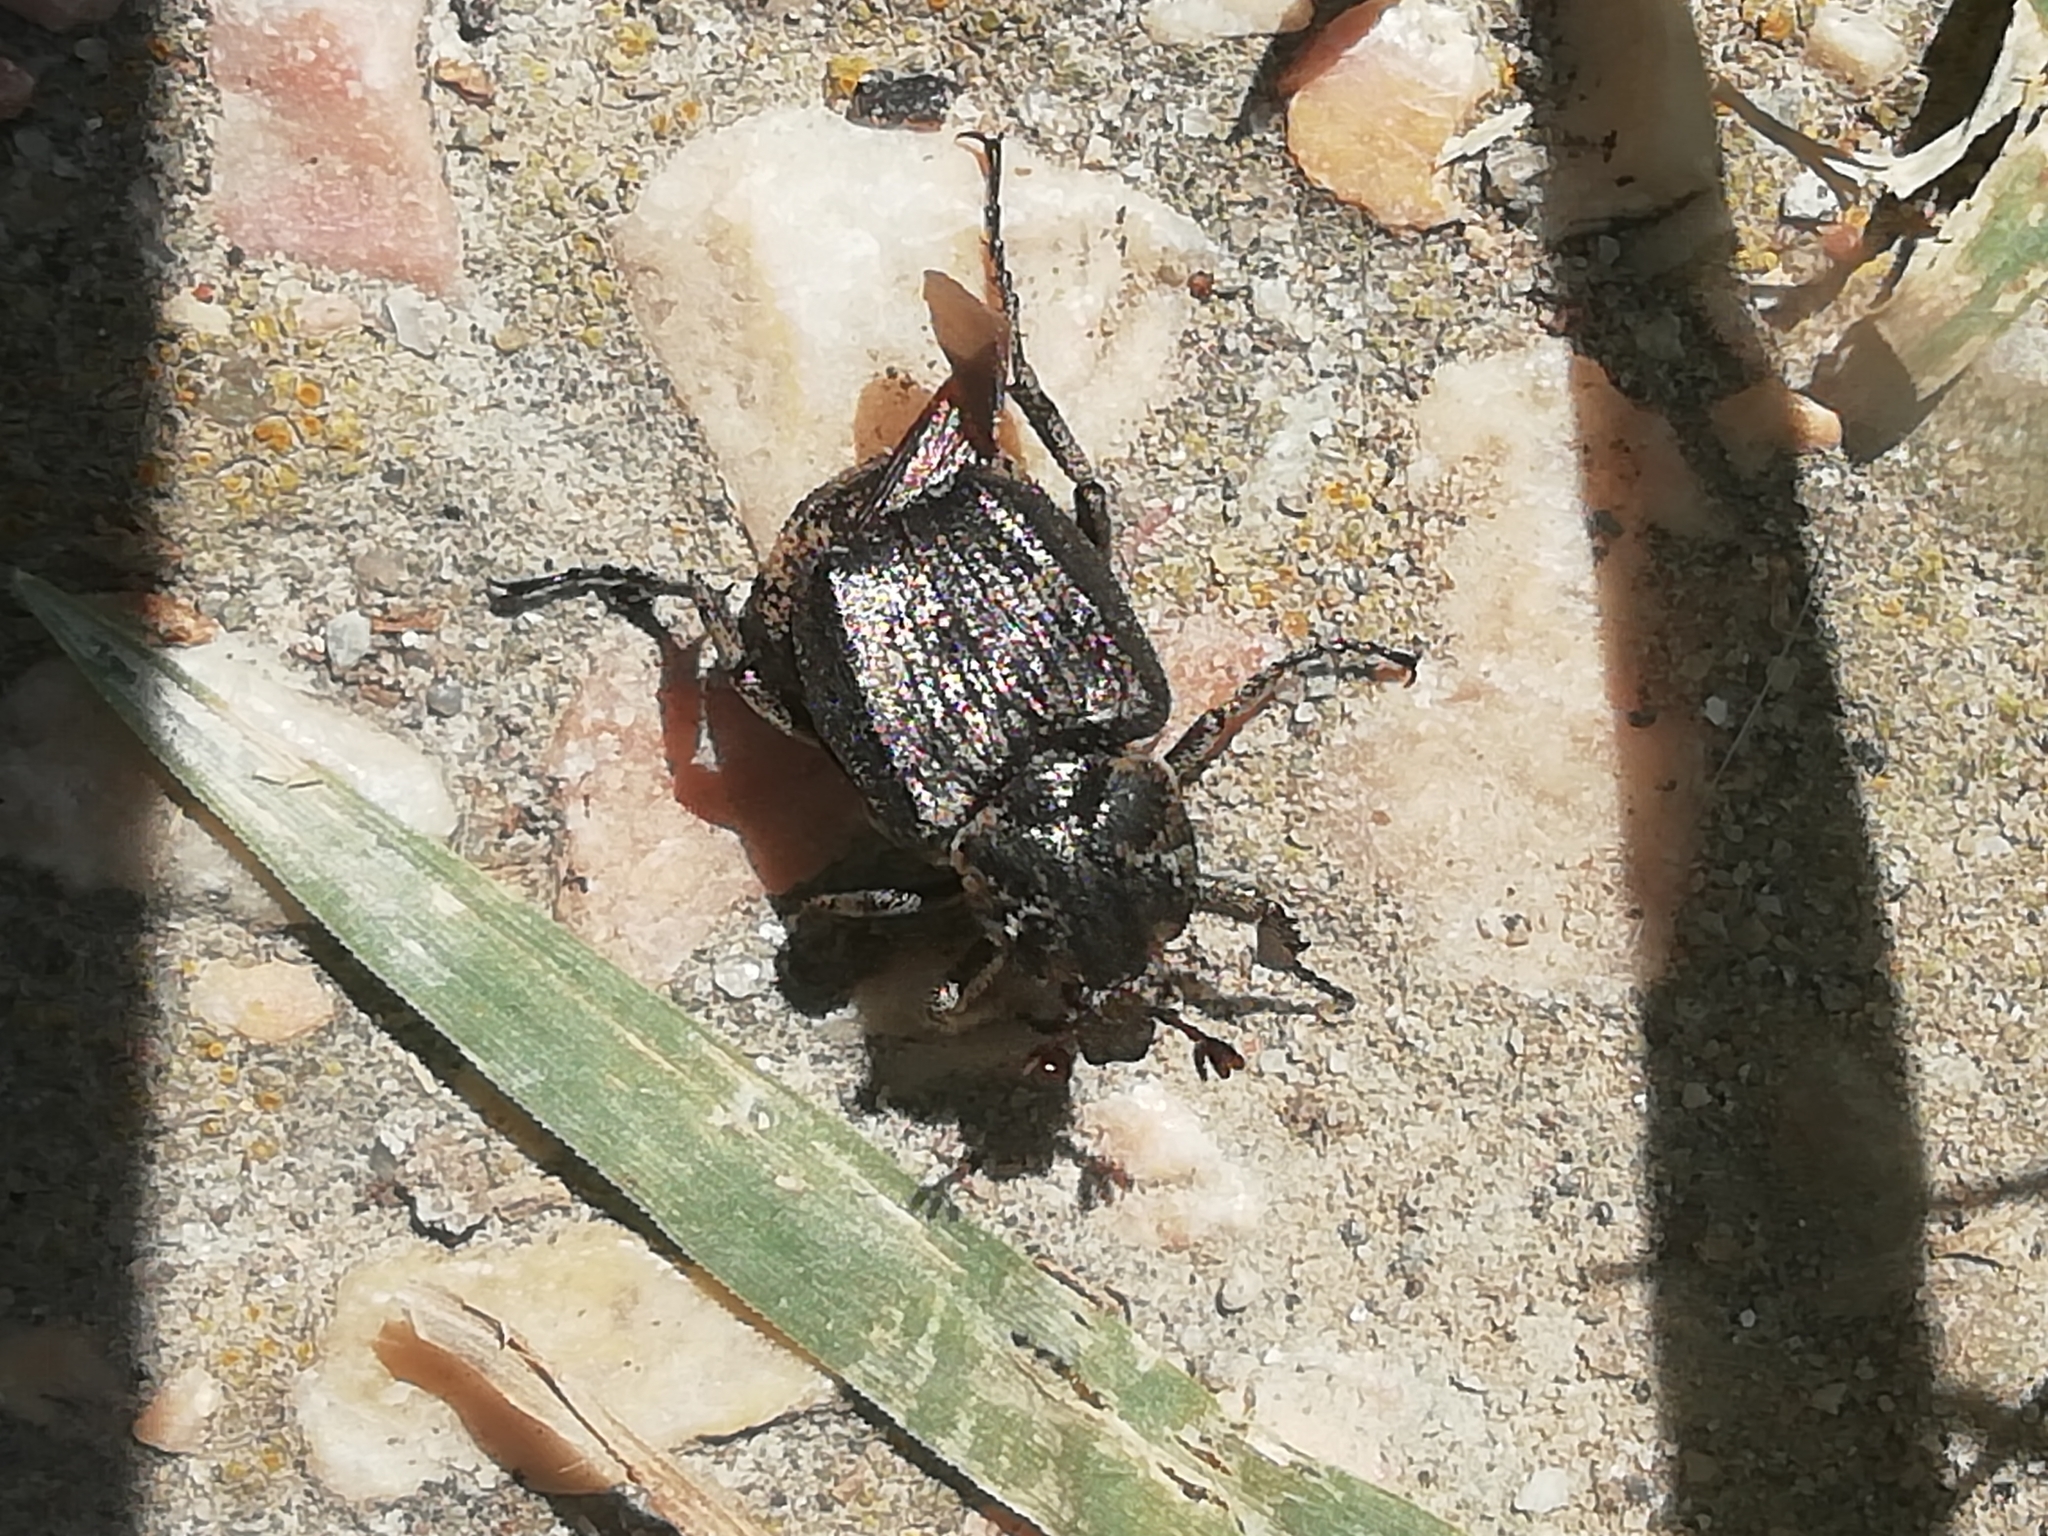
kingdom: Animalia
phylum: Arthropoda
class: Insecta
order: Coleoptera
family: Scarabaeidae
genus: Valgus
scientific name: Valgus hemipterus
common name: Bug flower chafer
